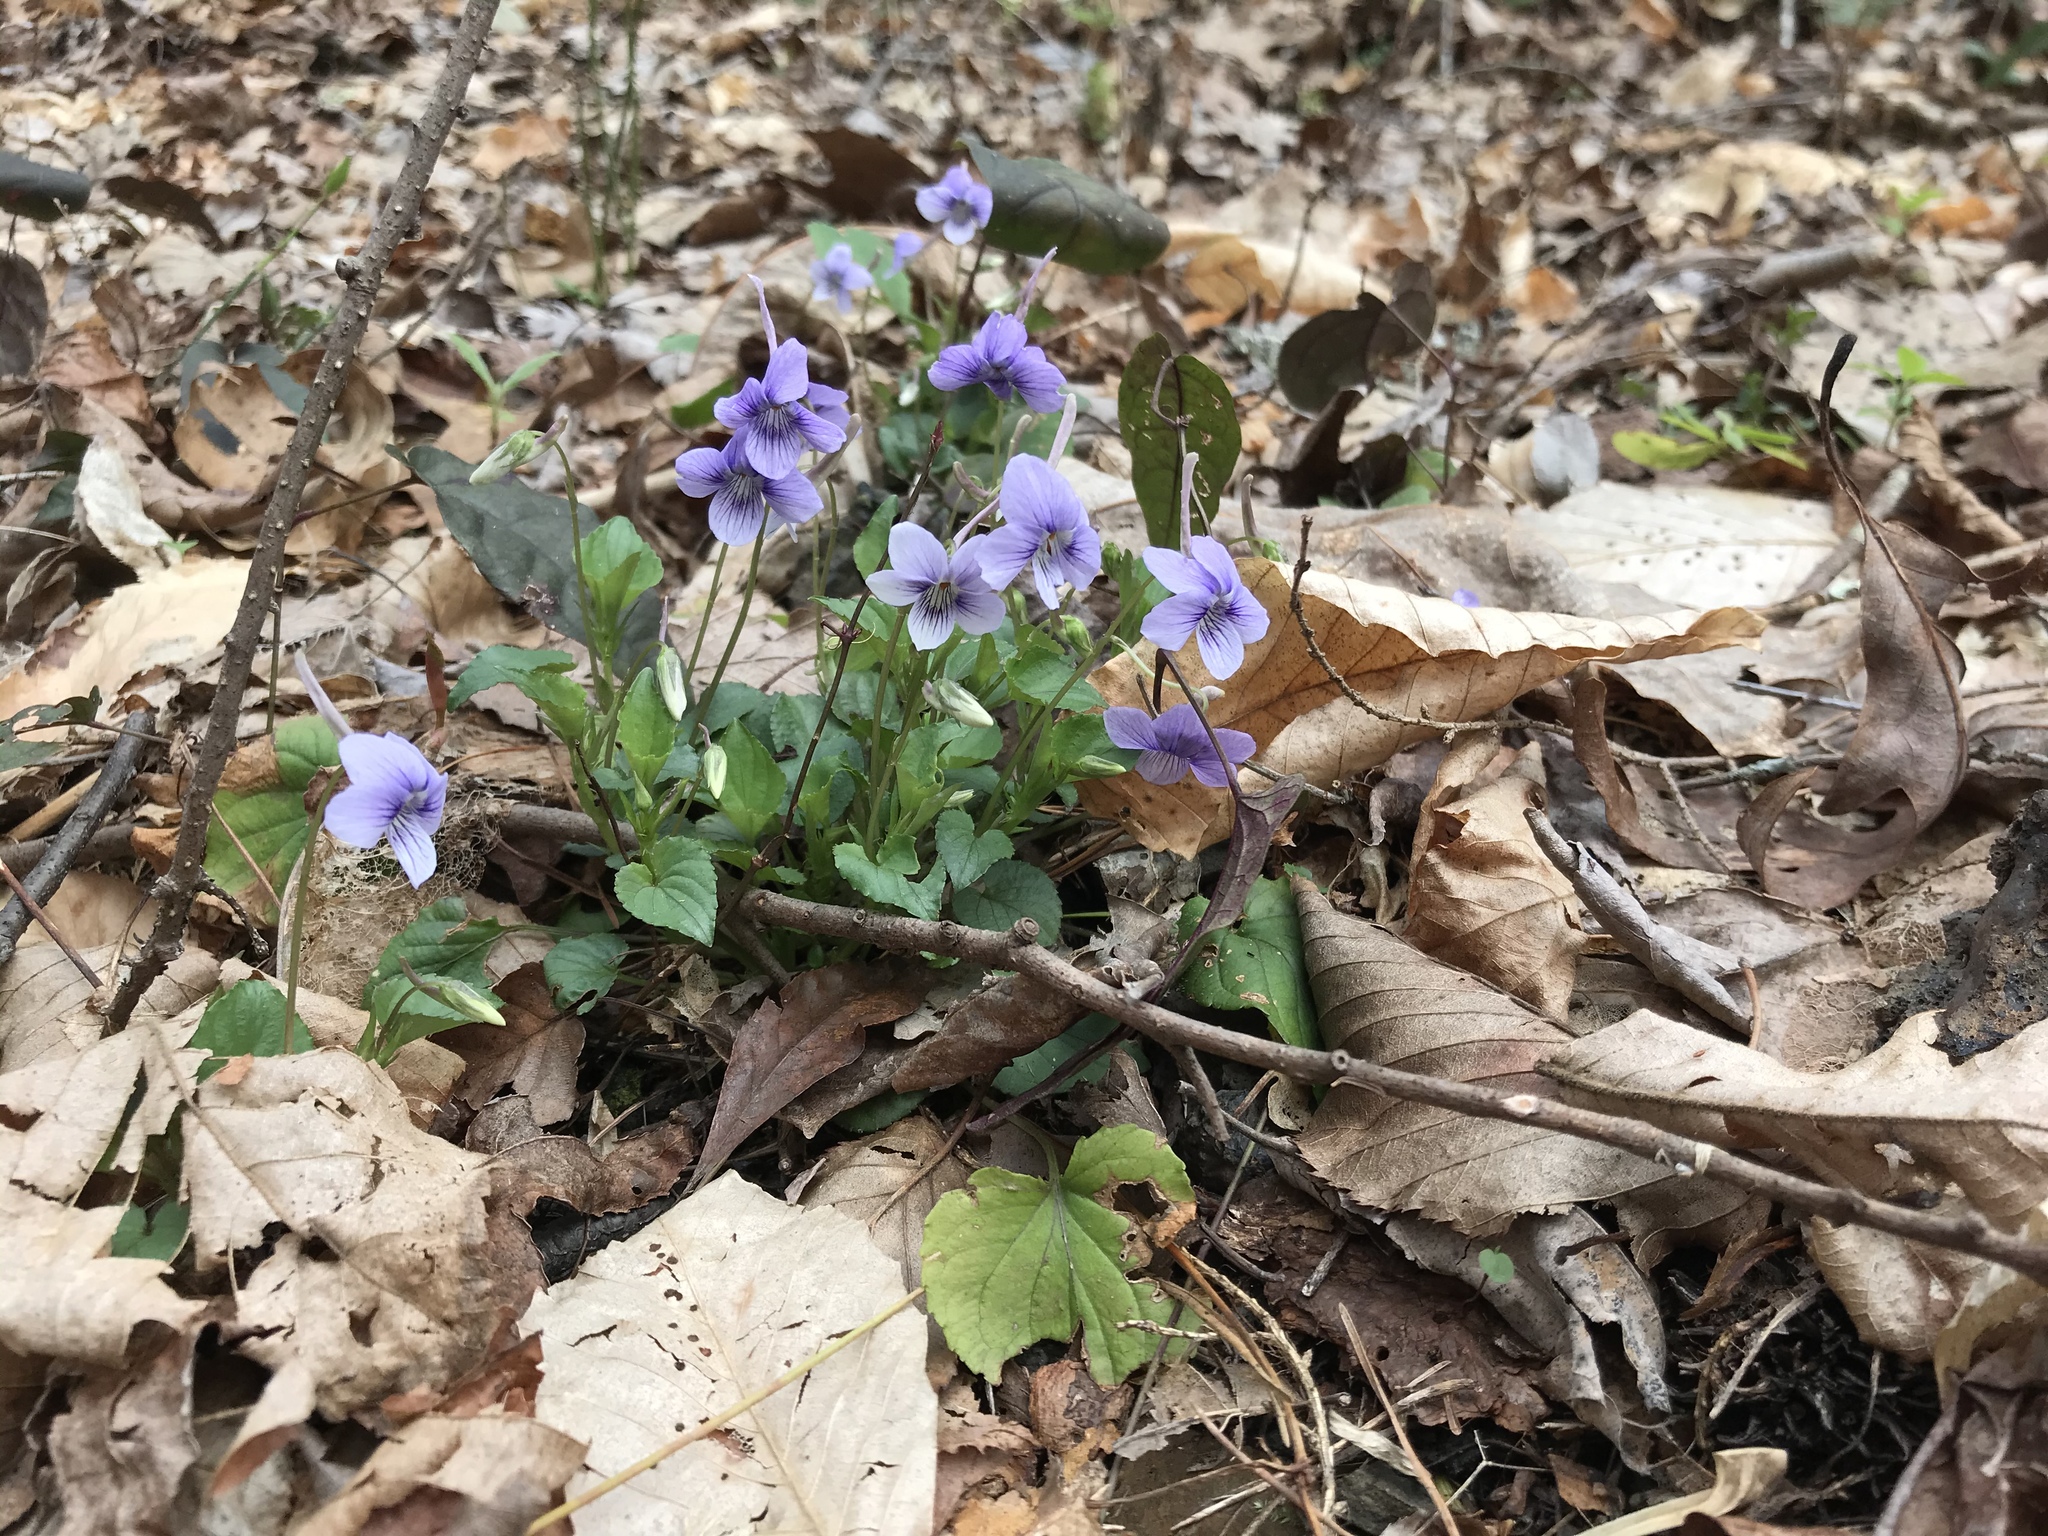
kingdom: Plantae
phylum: Tracheophyta
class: Magnoliopsida
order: Malpighiales
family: Violaceae
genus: Viola
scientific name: Viola rostrata
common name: Long-spur violet
